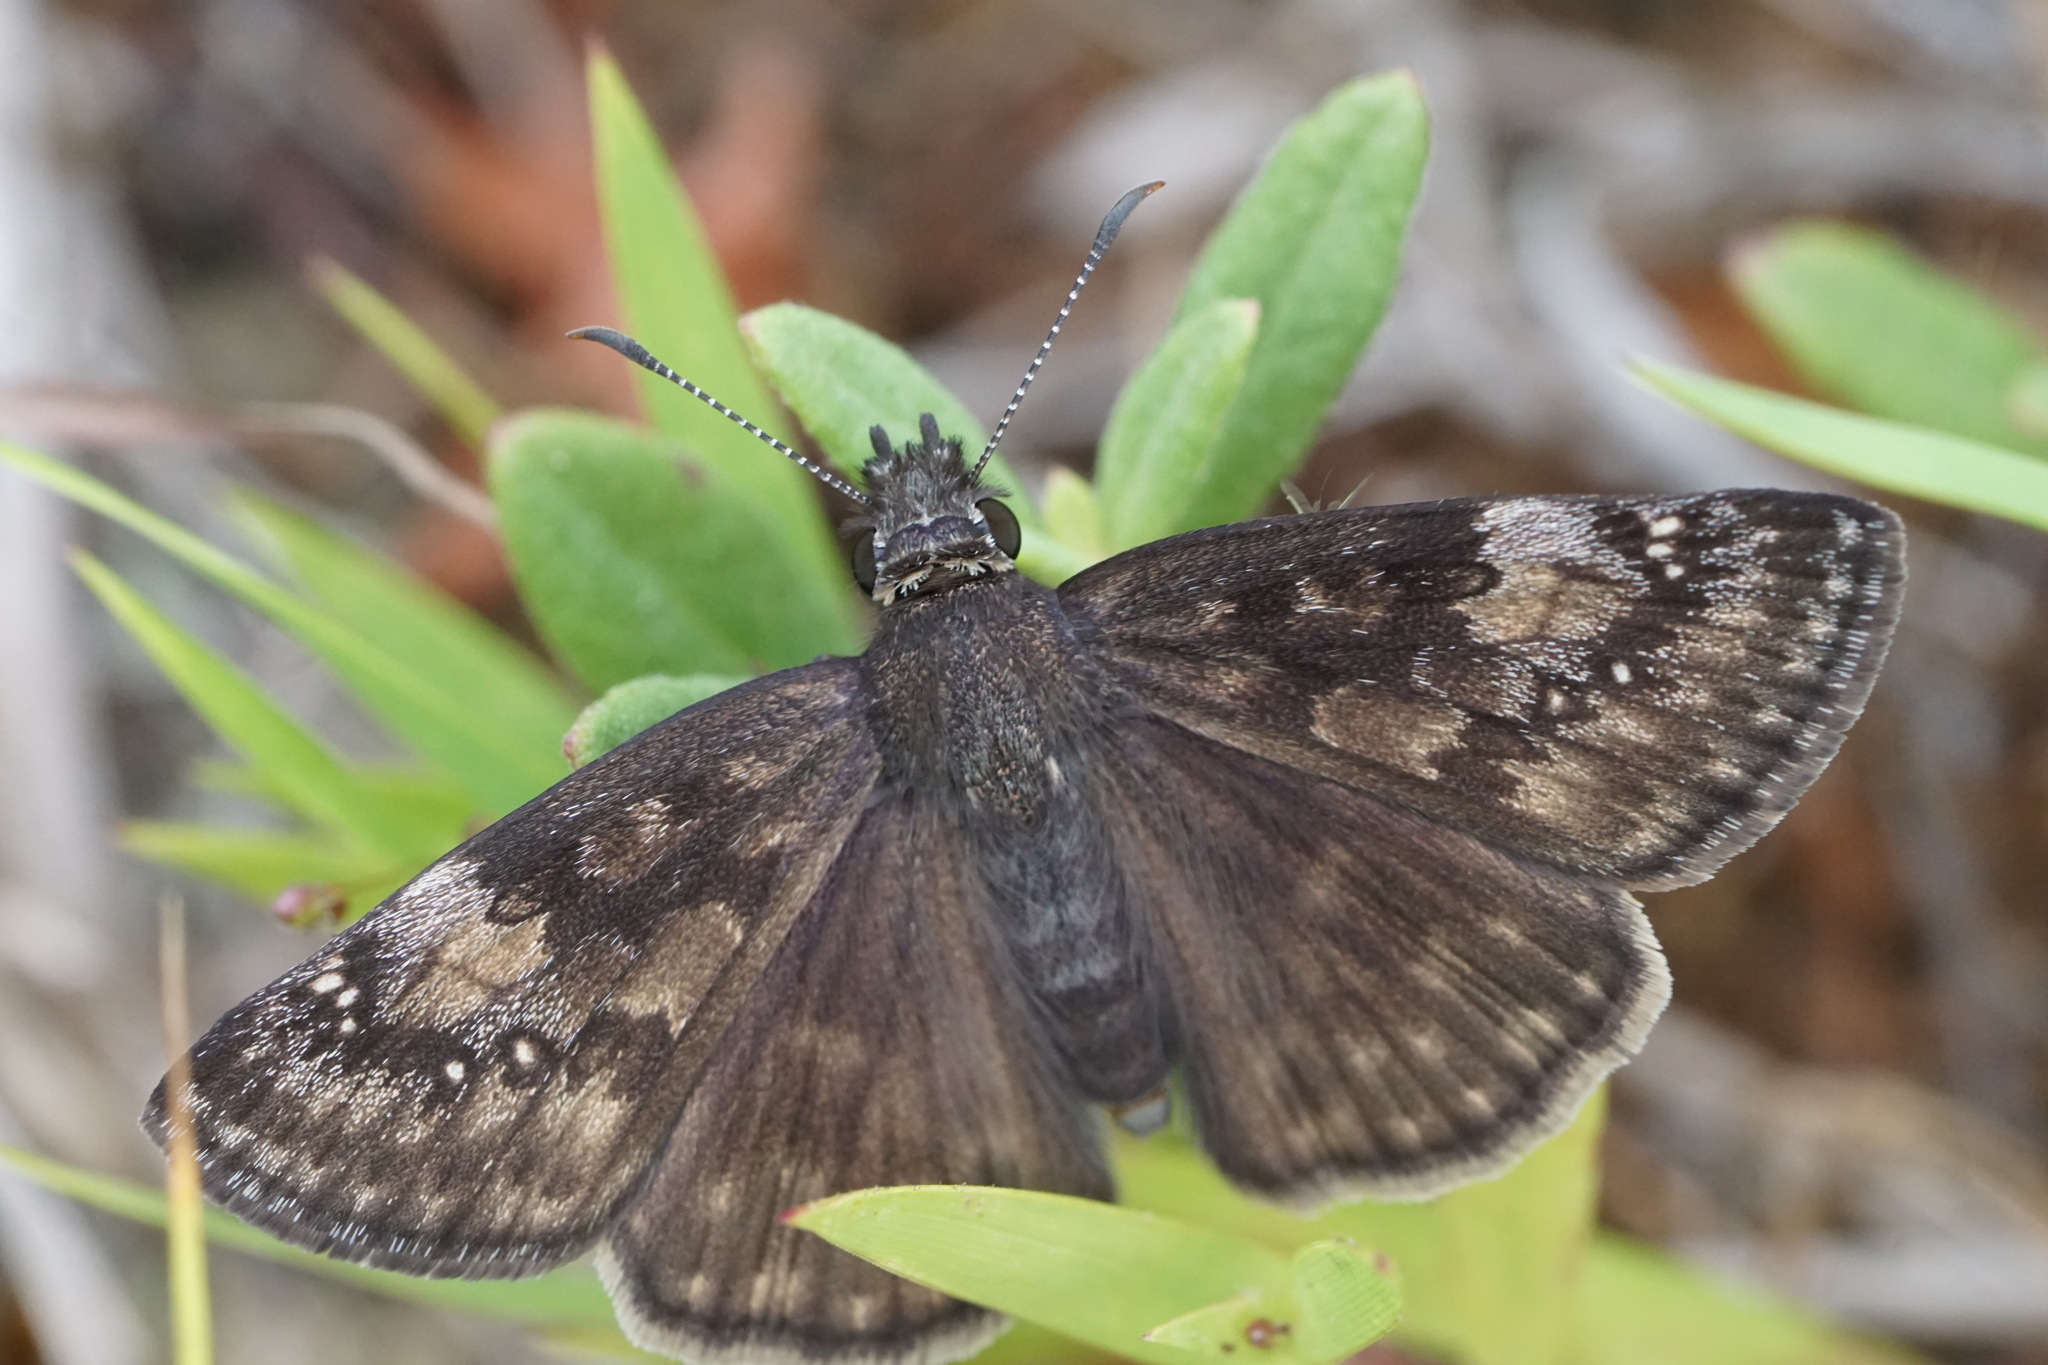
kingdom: Animalia
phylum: Arthropoda
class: Insecta
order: Lepidoptera
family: Hesperiidae
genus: Erynnis
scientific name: Erynnis baptisiae
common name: Wild indigo duskywing
